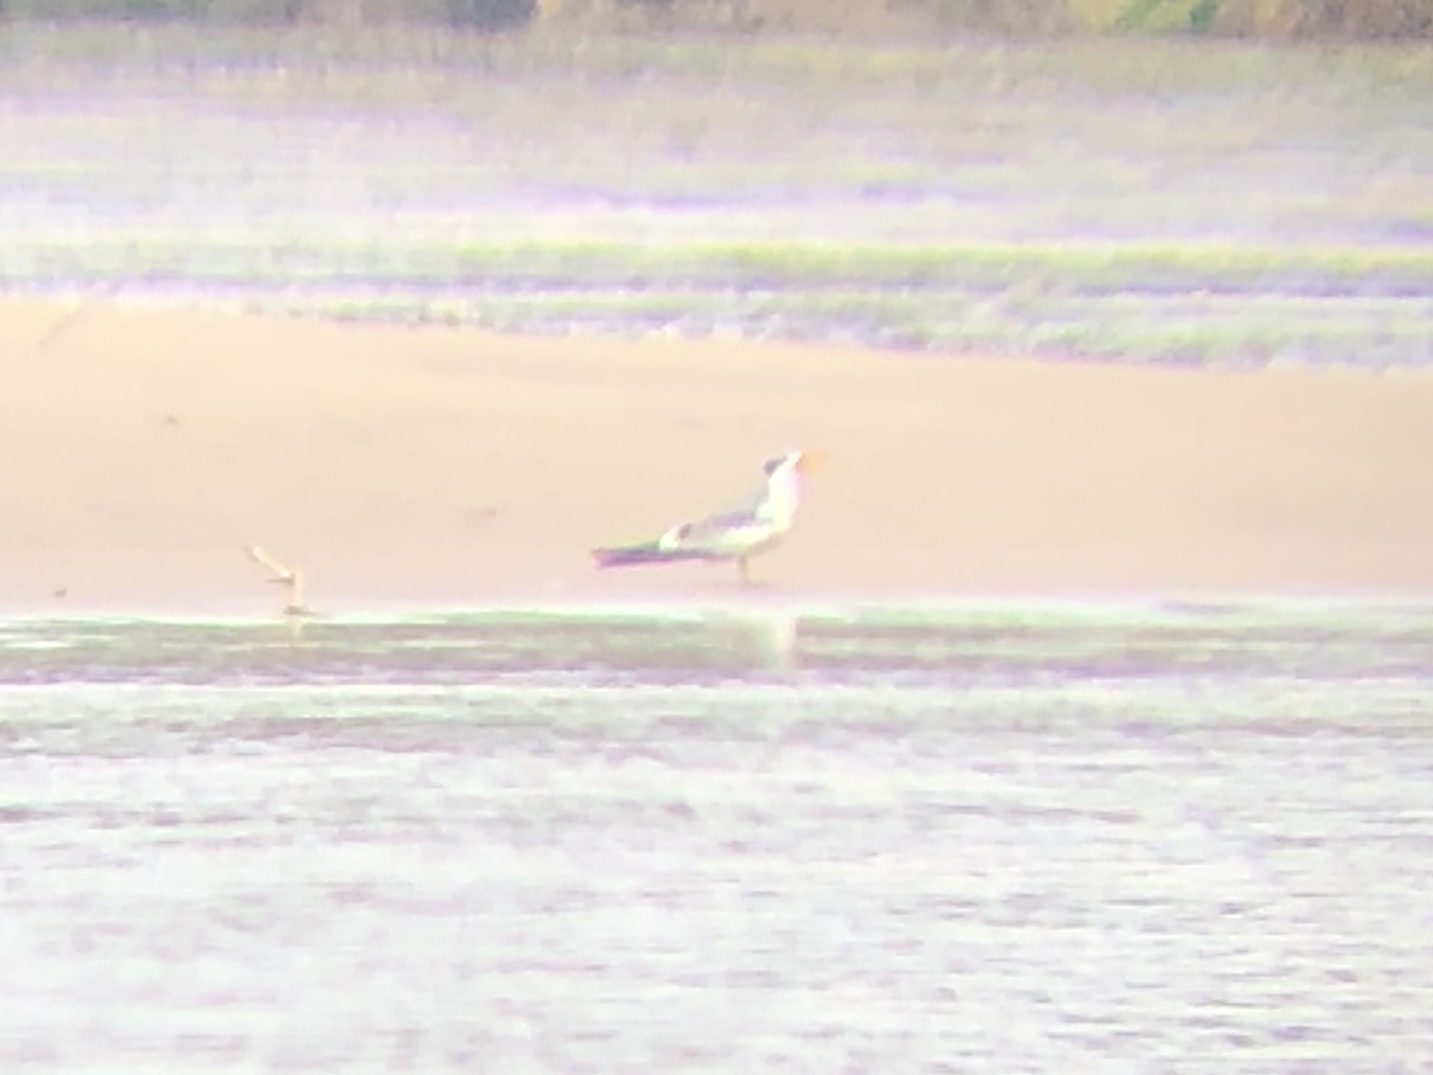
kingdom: Animalia
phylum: Chordata
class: Aves
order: Charadriiformes
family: Laridae
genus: Phaetusa
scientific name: Phaetusa simplex
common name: Large-billed tern
